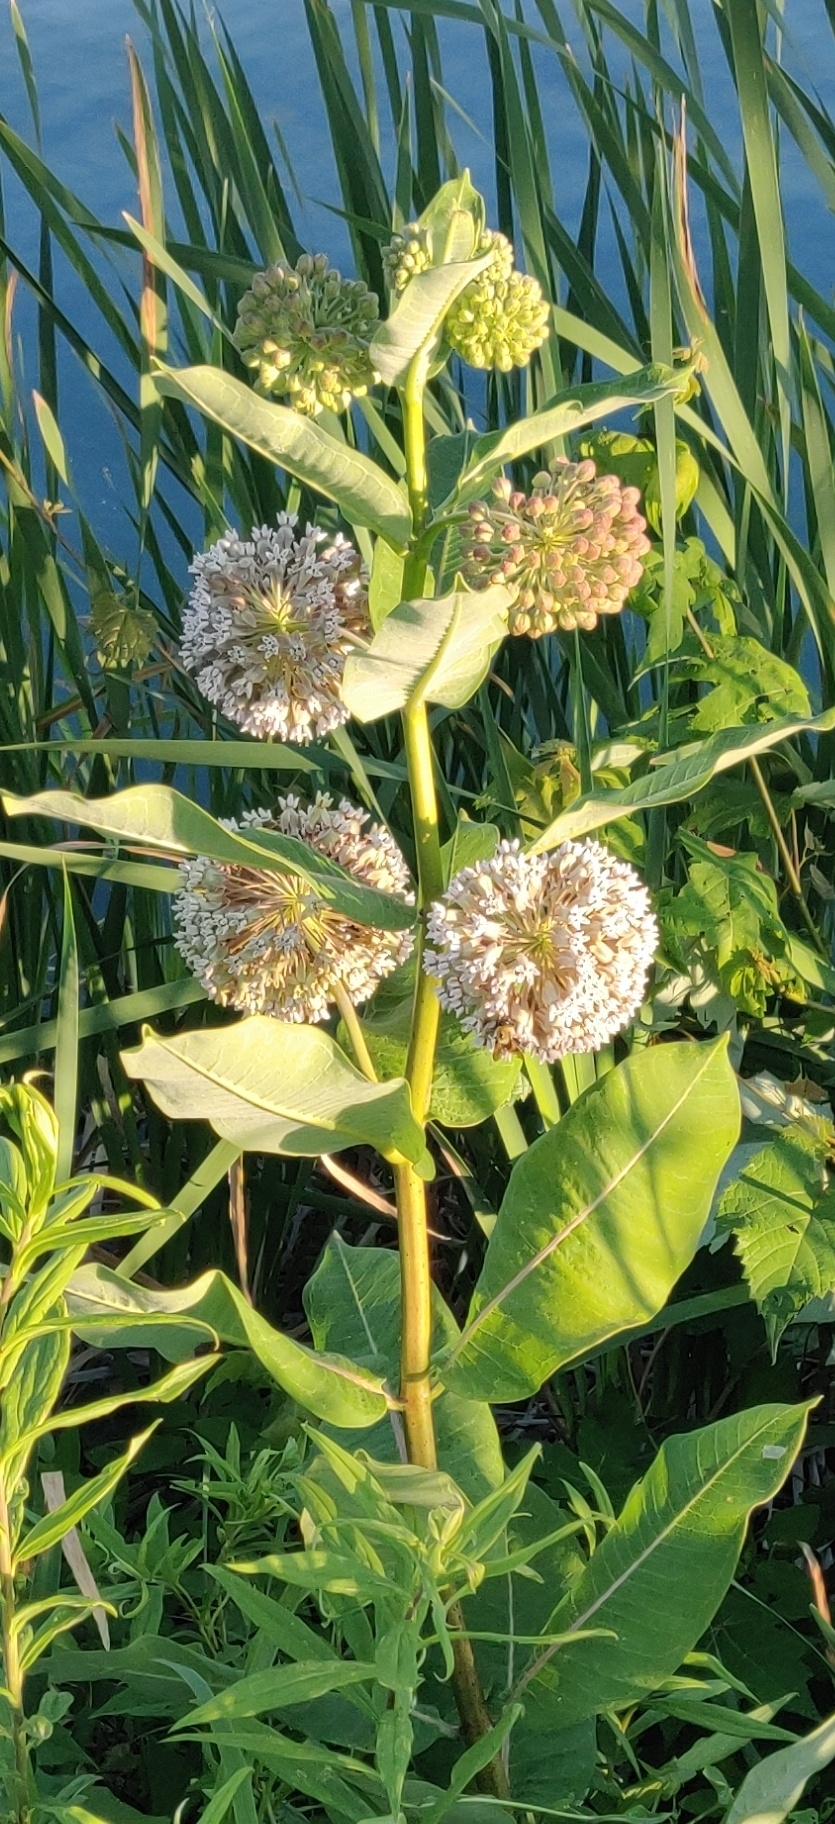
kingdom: Plantae
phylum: Tracheophyta
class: Magnoliopsida
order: Gentianales
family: Apocynaceae
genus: Asclepias
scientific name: Asclepias syriaca
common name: Common milkweed
